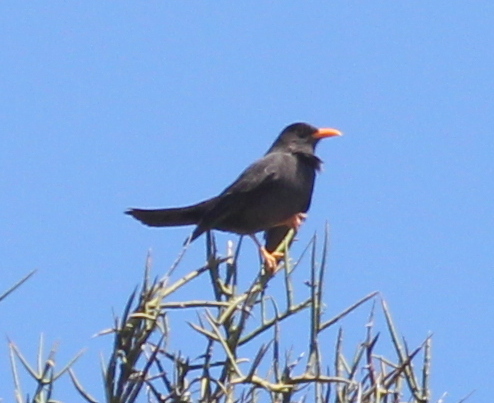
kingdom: Animalia
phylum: Chordata
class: Aves
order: Passeriformes
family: Turdidae
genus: Turdus
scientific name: Turdus chiguanco
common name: Chiguanco thrush
